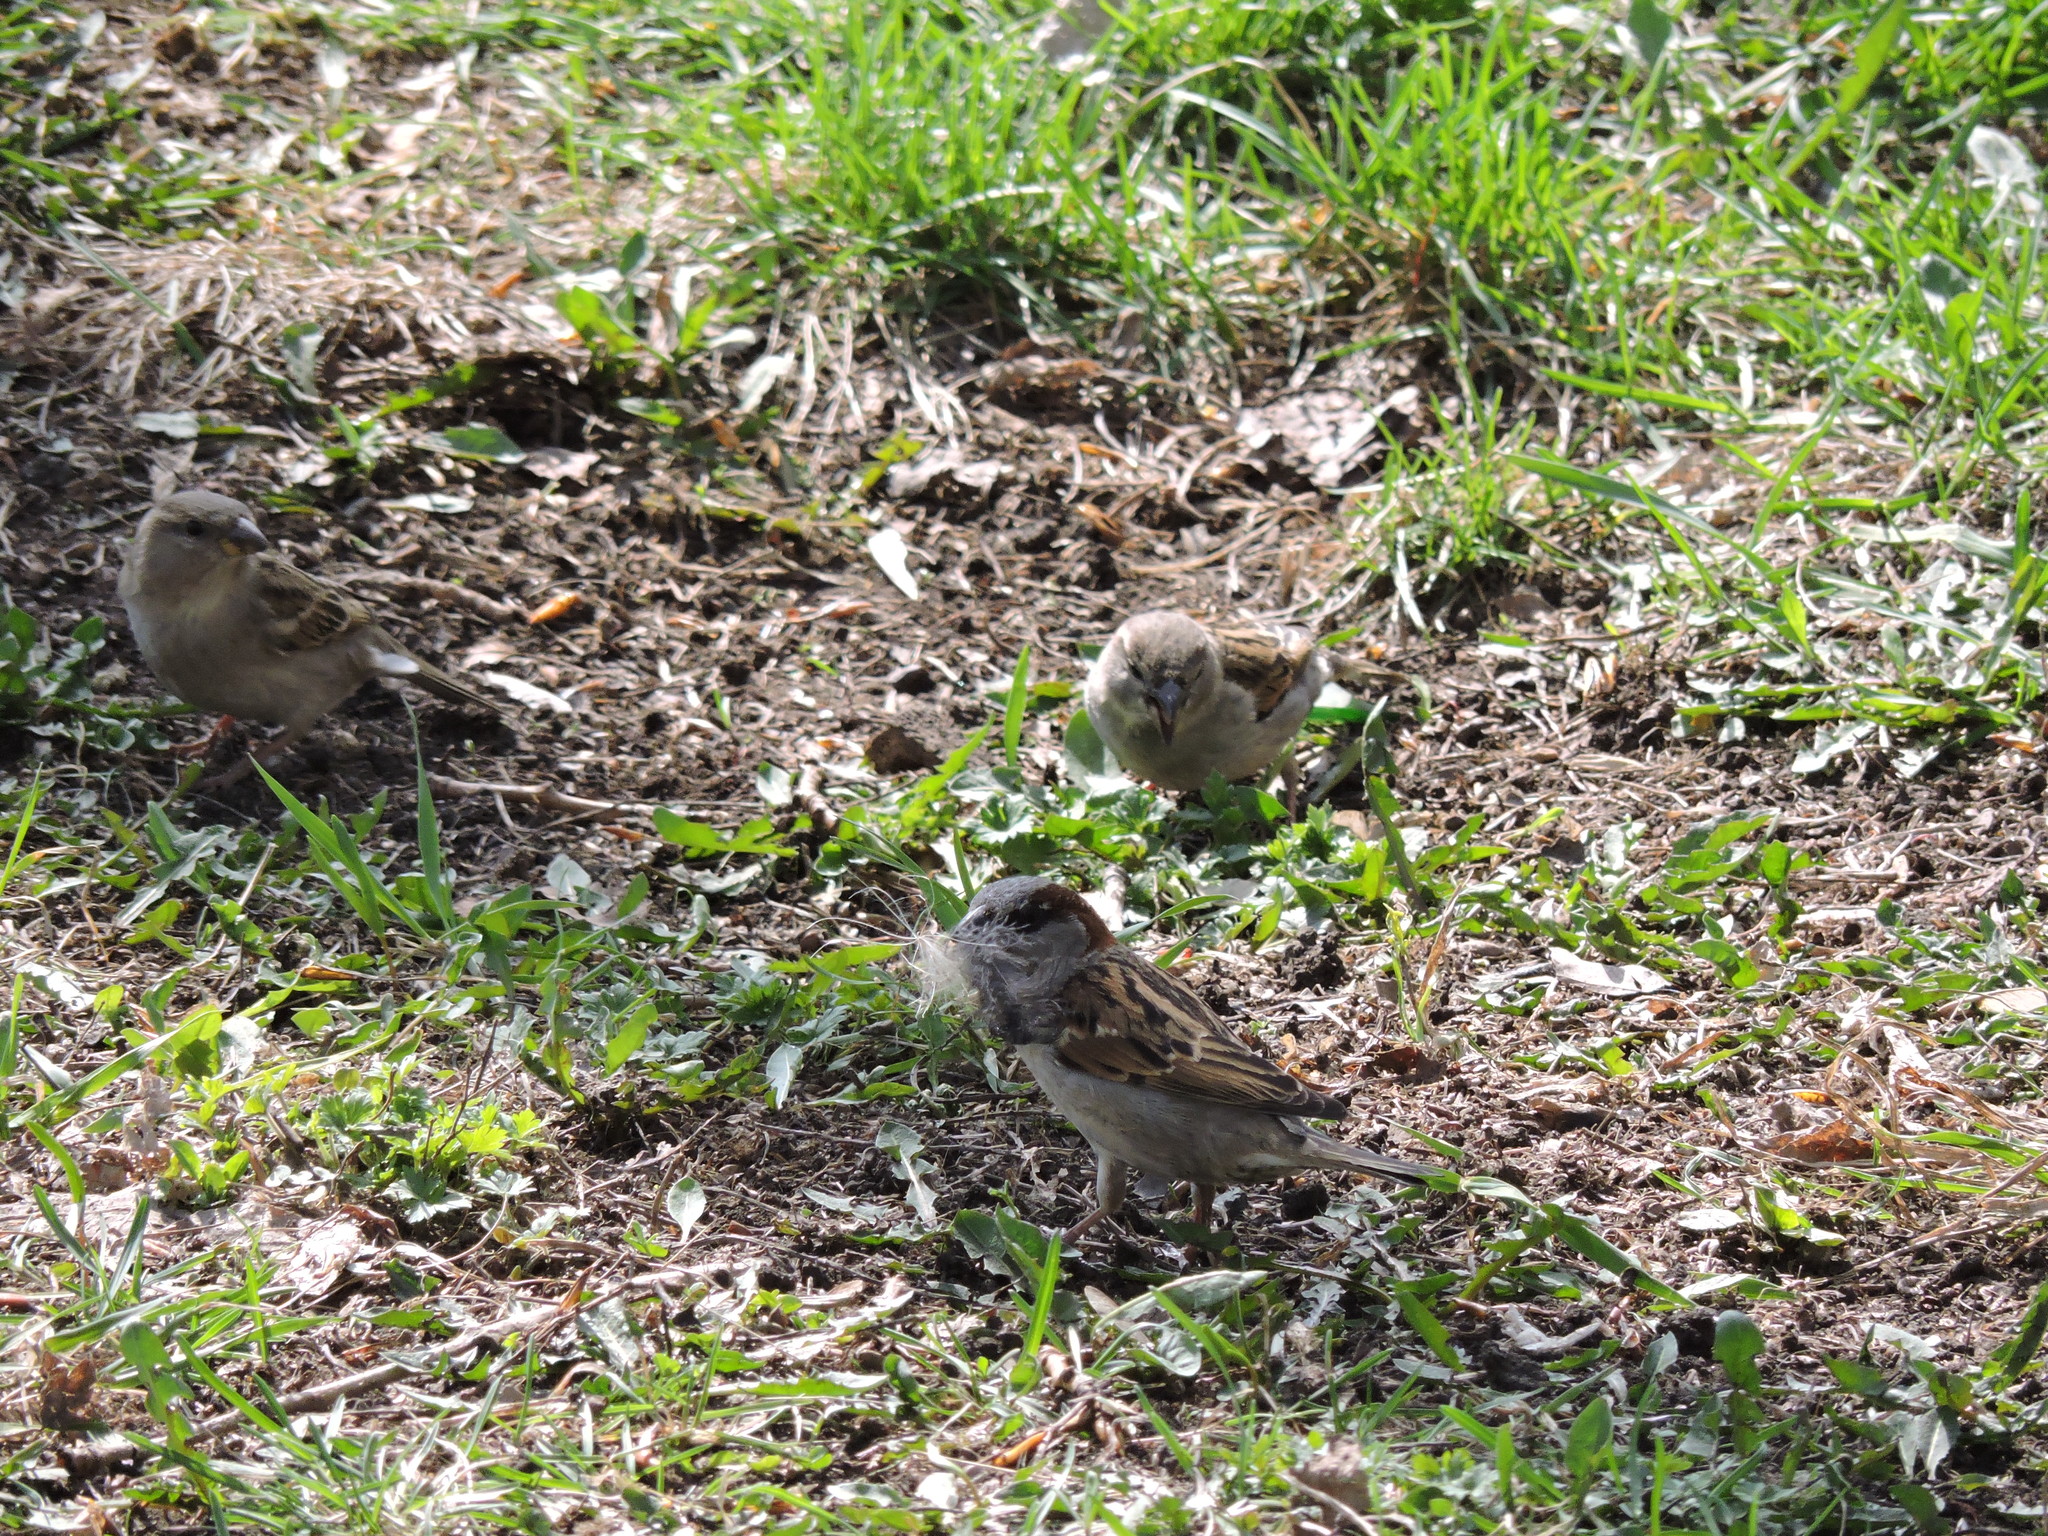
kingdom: Animalia
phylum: Chordata
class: Aves
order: Passeriformes
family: Passeridae
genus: Passer
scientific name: Passer domesticus
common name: House sparrow
